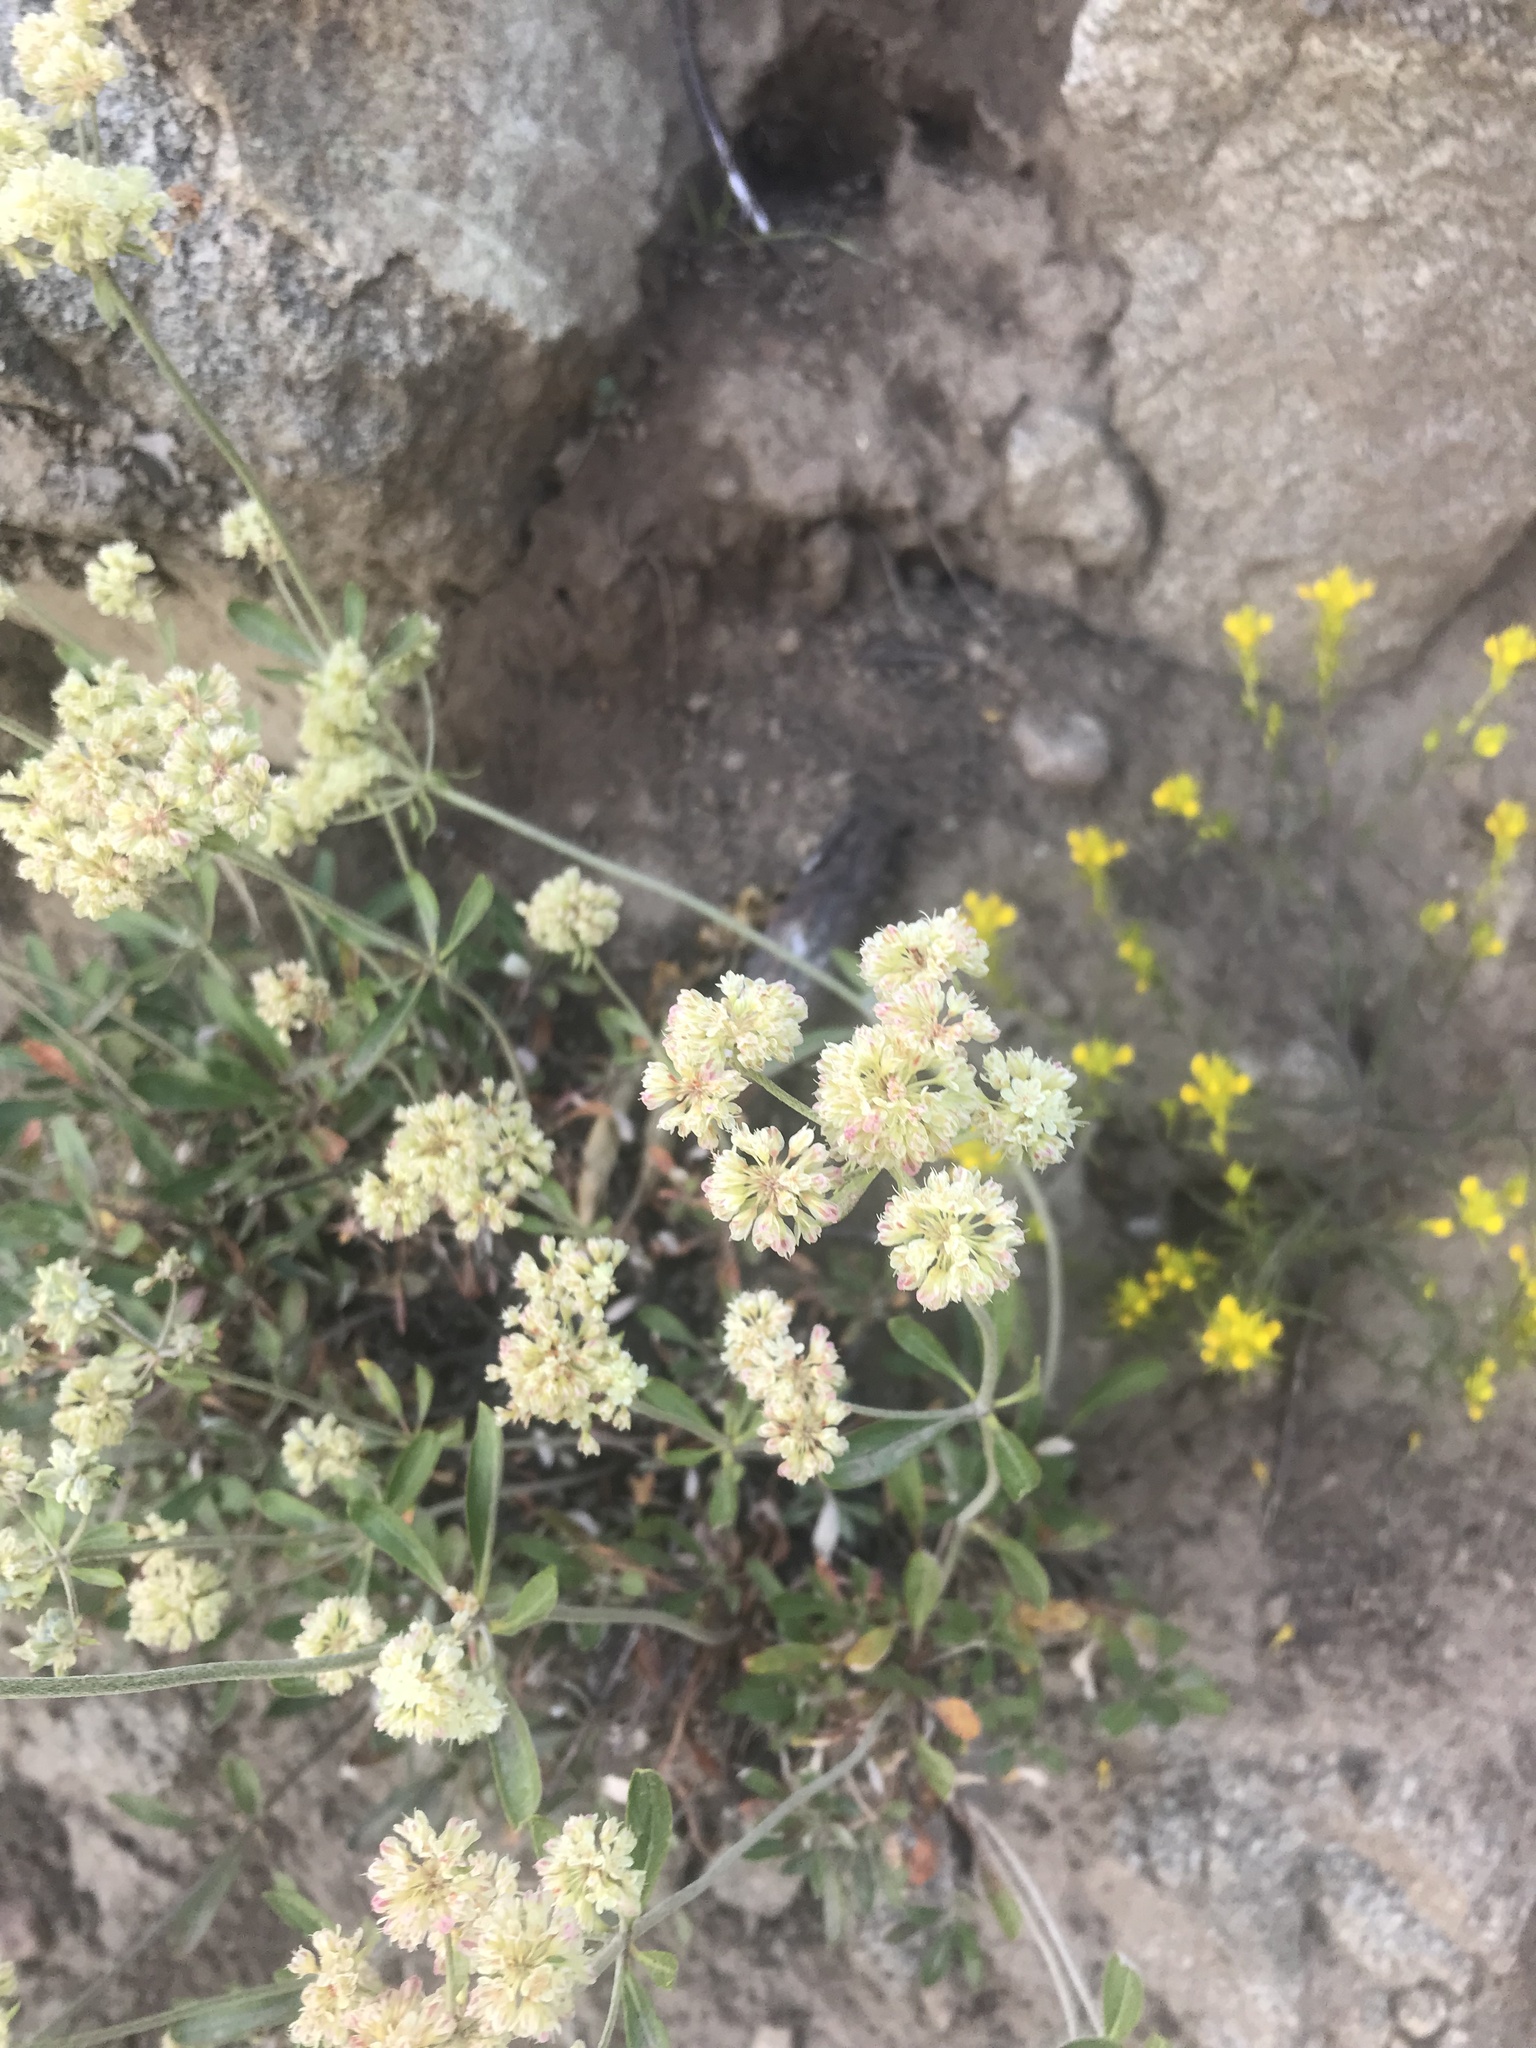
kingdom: Plantae
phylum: Tracheophyta
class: Magnoliopsida
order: Caryophyllales
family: Polygonaceae
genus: Eriogonum
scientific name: Eriogonum heracleoides
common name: Wyeth's buckwheat
